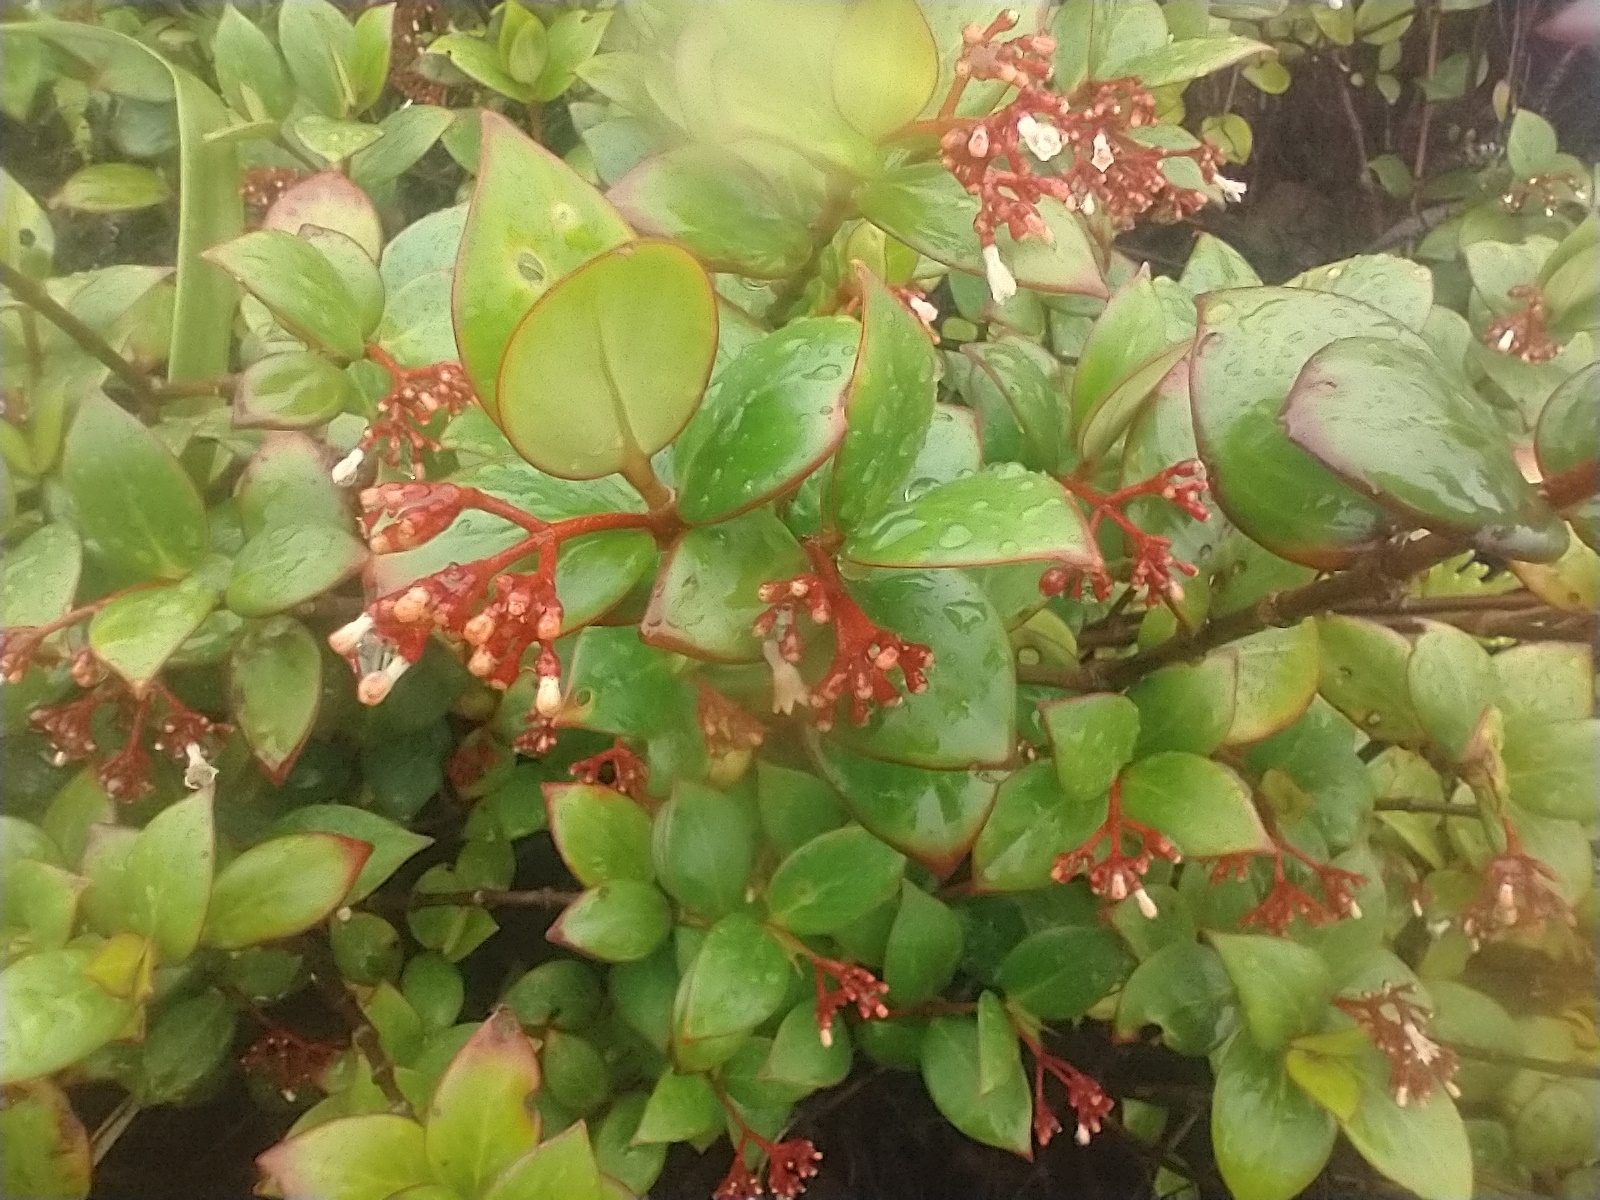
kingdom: Plantae
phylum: Tracheophyta
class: Magnoliopsida
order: Gentianales
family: Rubiaceae
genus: Notopleura
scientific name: Notopleura parasitica
